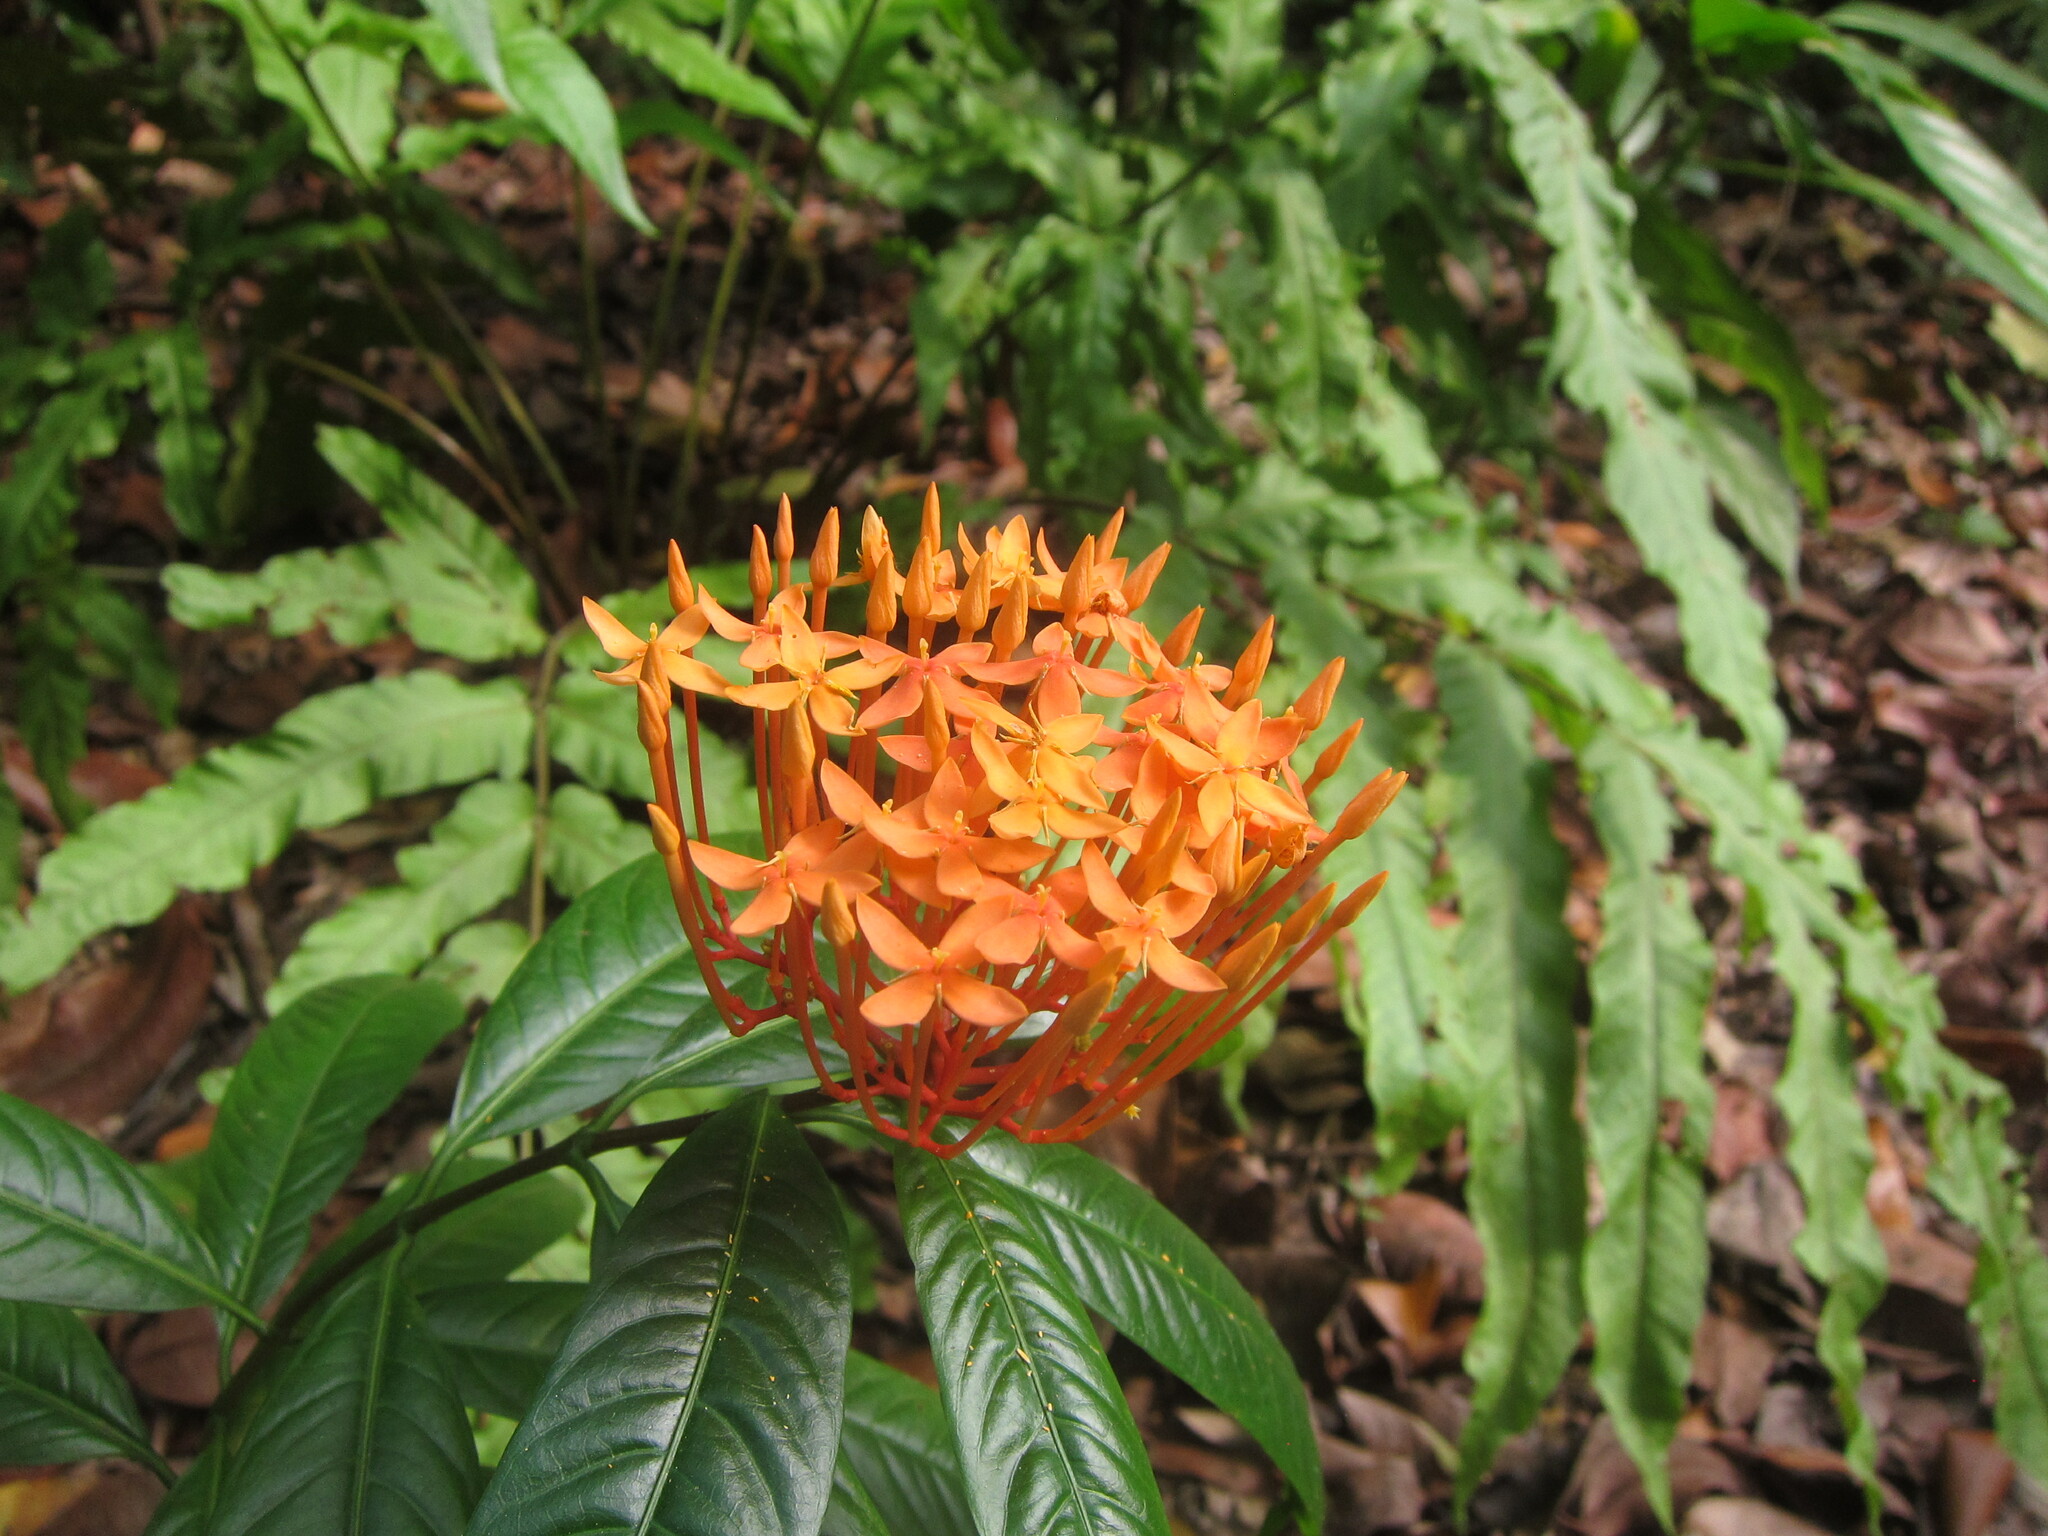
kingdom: Plantae
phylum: Tracheophyta
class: Magnoliopsida
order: Gentianales
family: Rubiaceae
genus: Ixora
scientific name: Ixora lobbii
